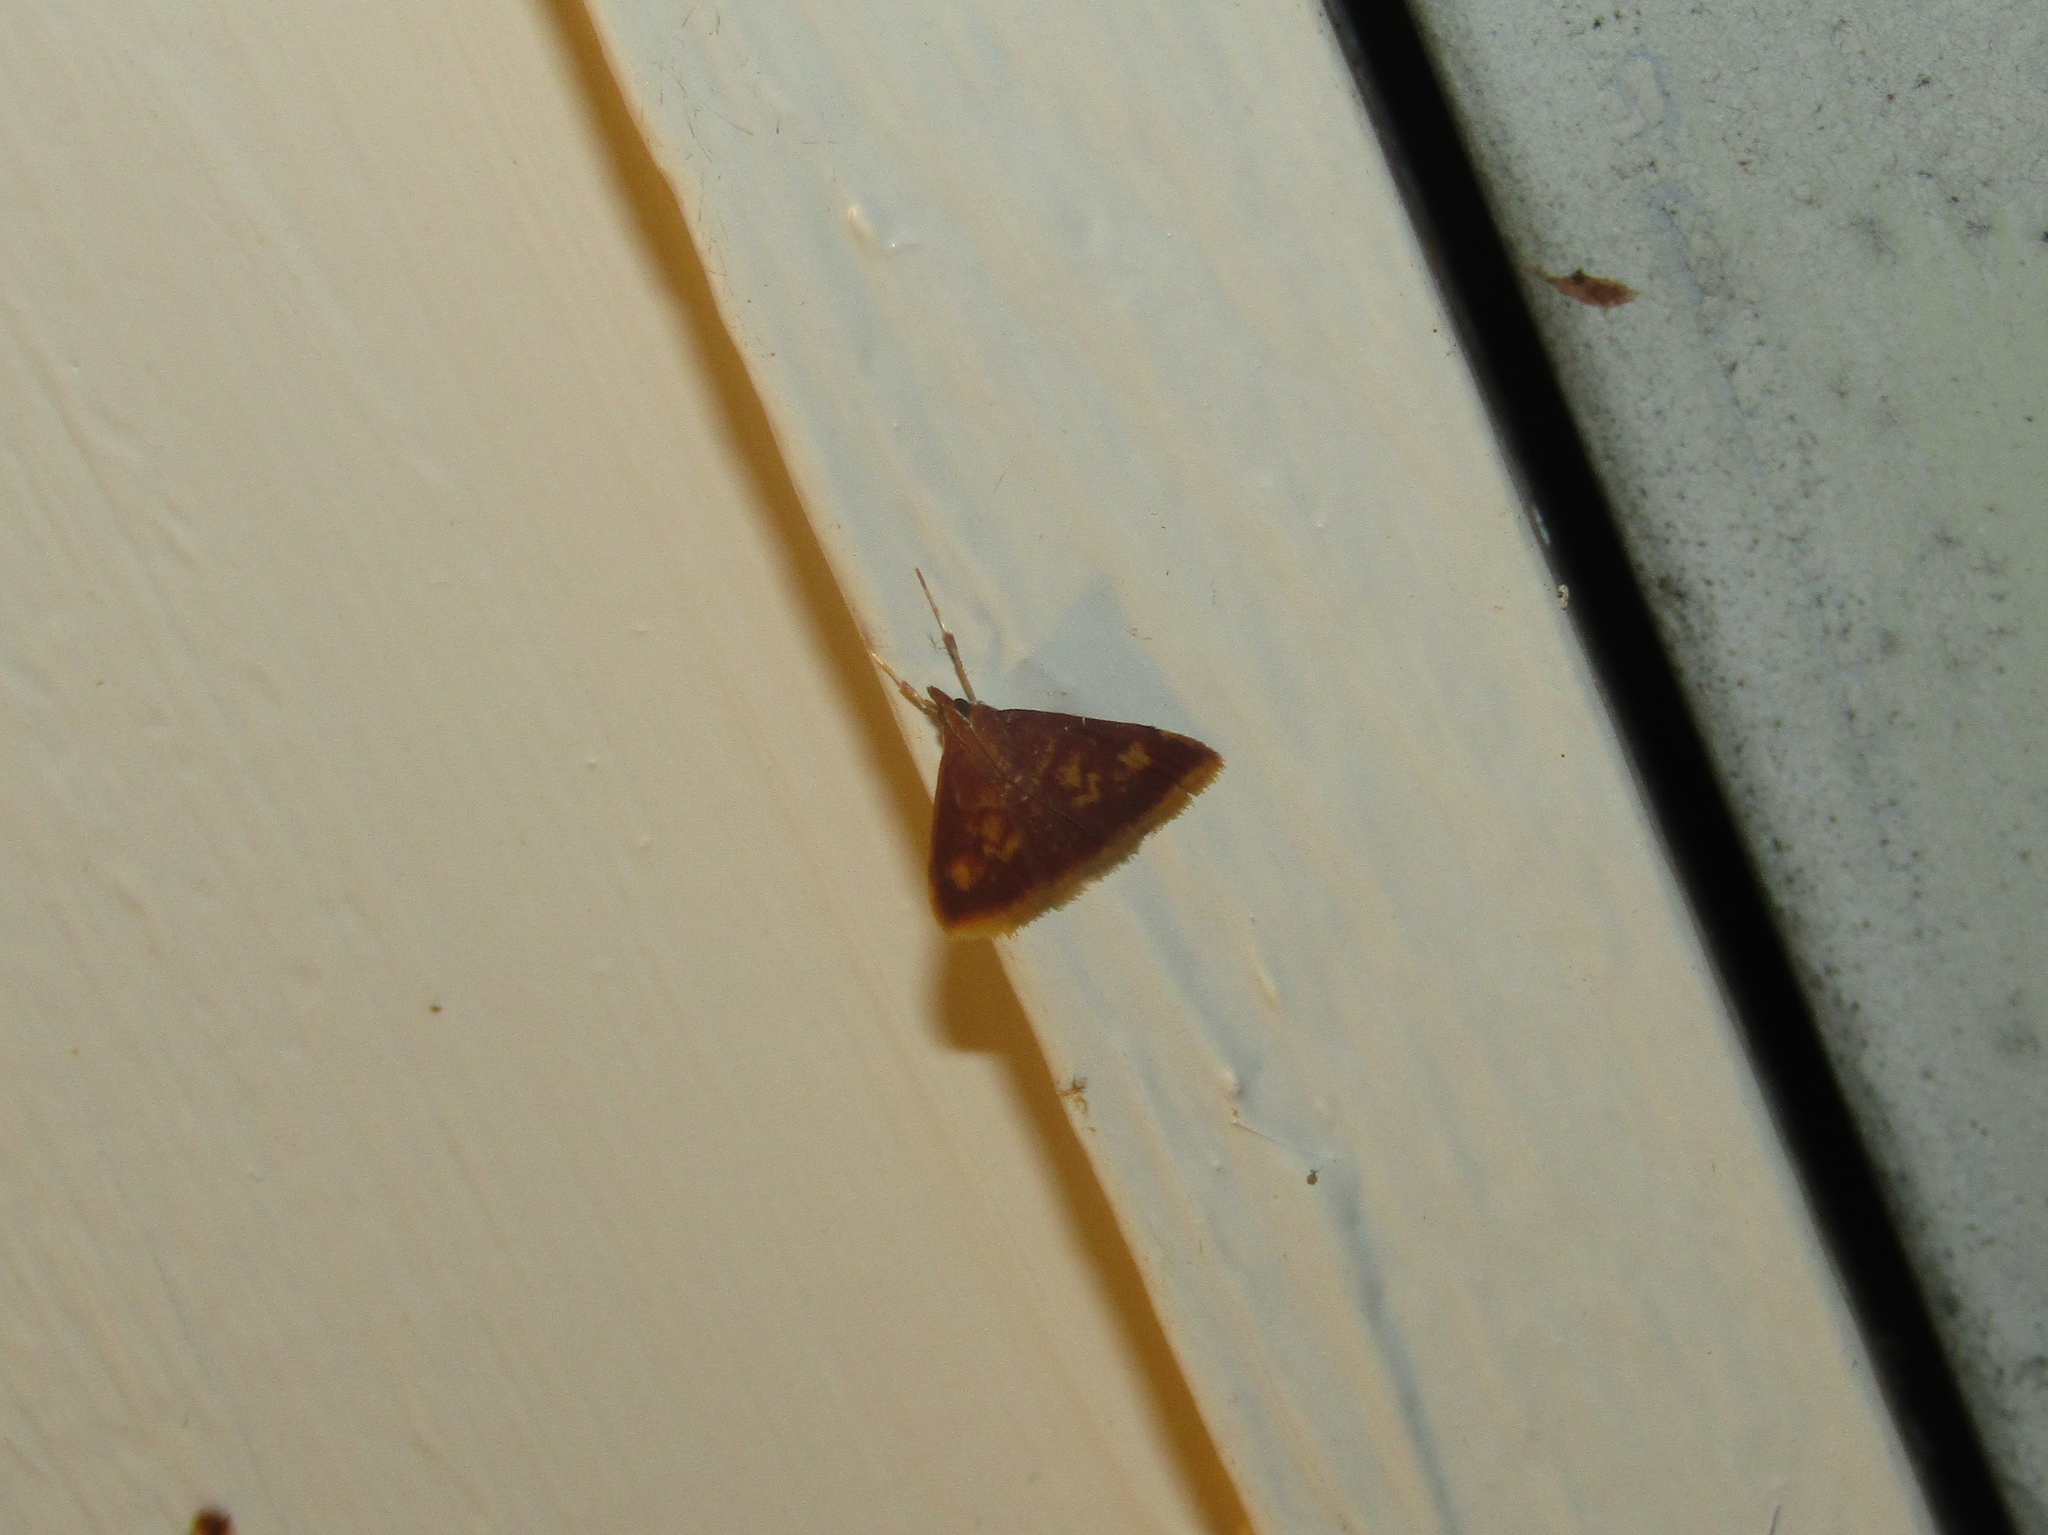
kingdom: Animalia
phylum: Arthropoda
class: Insecta
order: Lepidoptera
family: Crambidae
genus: Pyrausta
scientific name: Pyrausta acrionalis
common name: Mint-loving pyrausta moth
